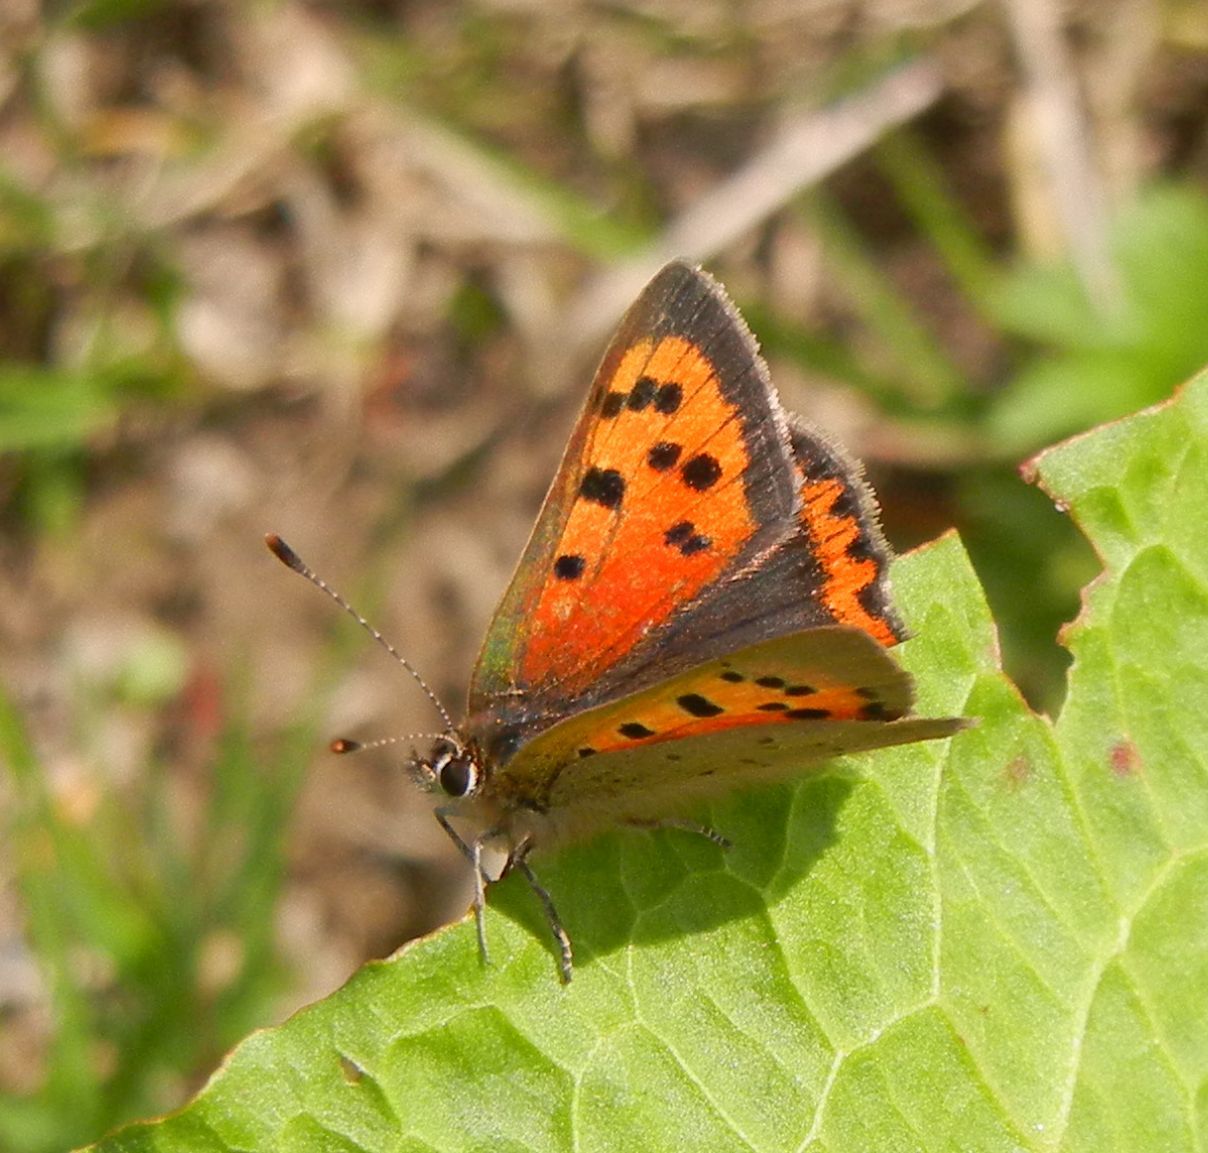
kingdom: Animalia
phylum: Arthropoda
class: Insecta
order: Lepidoptera
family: Lycaenidae
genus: Lycaena
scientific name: Lycaena phlaeas
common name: Small copper
